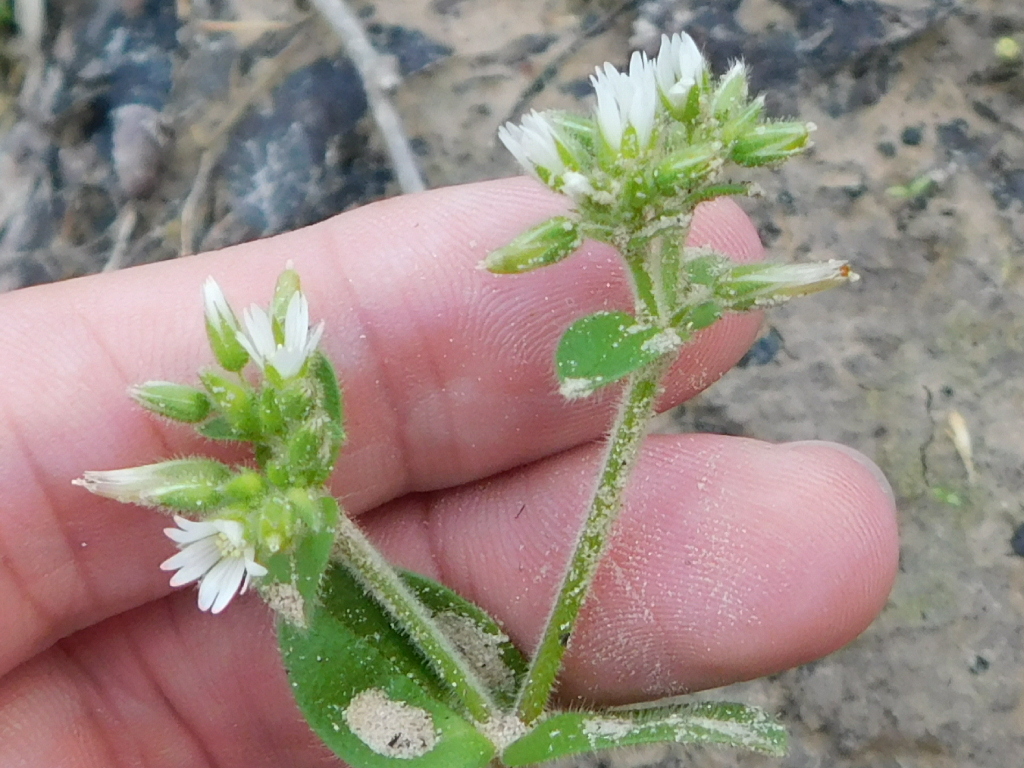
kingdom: Plantae
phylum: Tracheophyta
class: Magnoliopsida
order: Caryophyllales
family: Caryophyllaceae
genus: Cerastium
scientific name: Cerastium glomeratum
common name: Sticky chickweed
